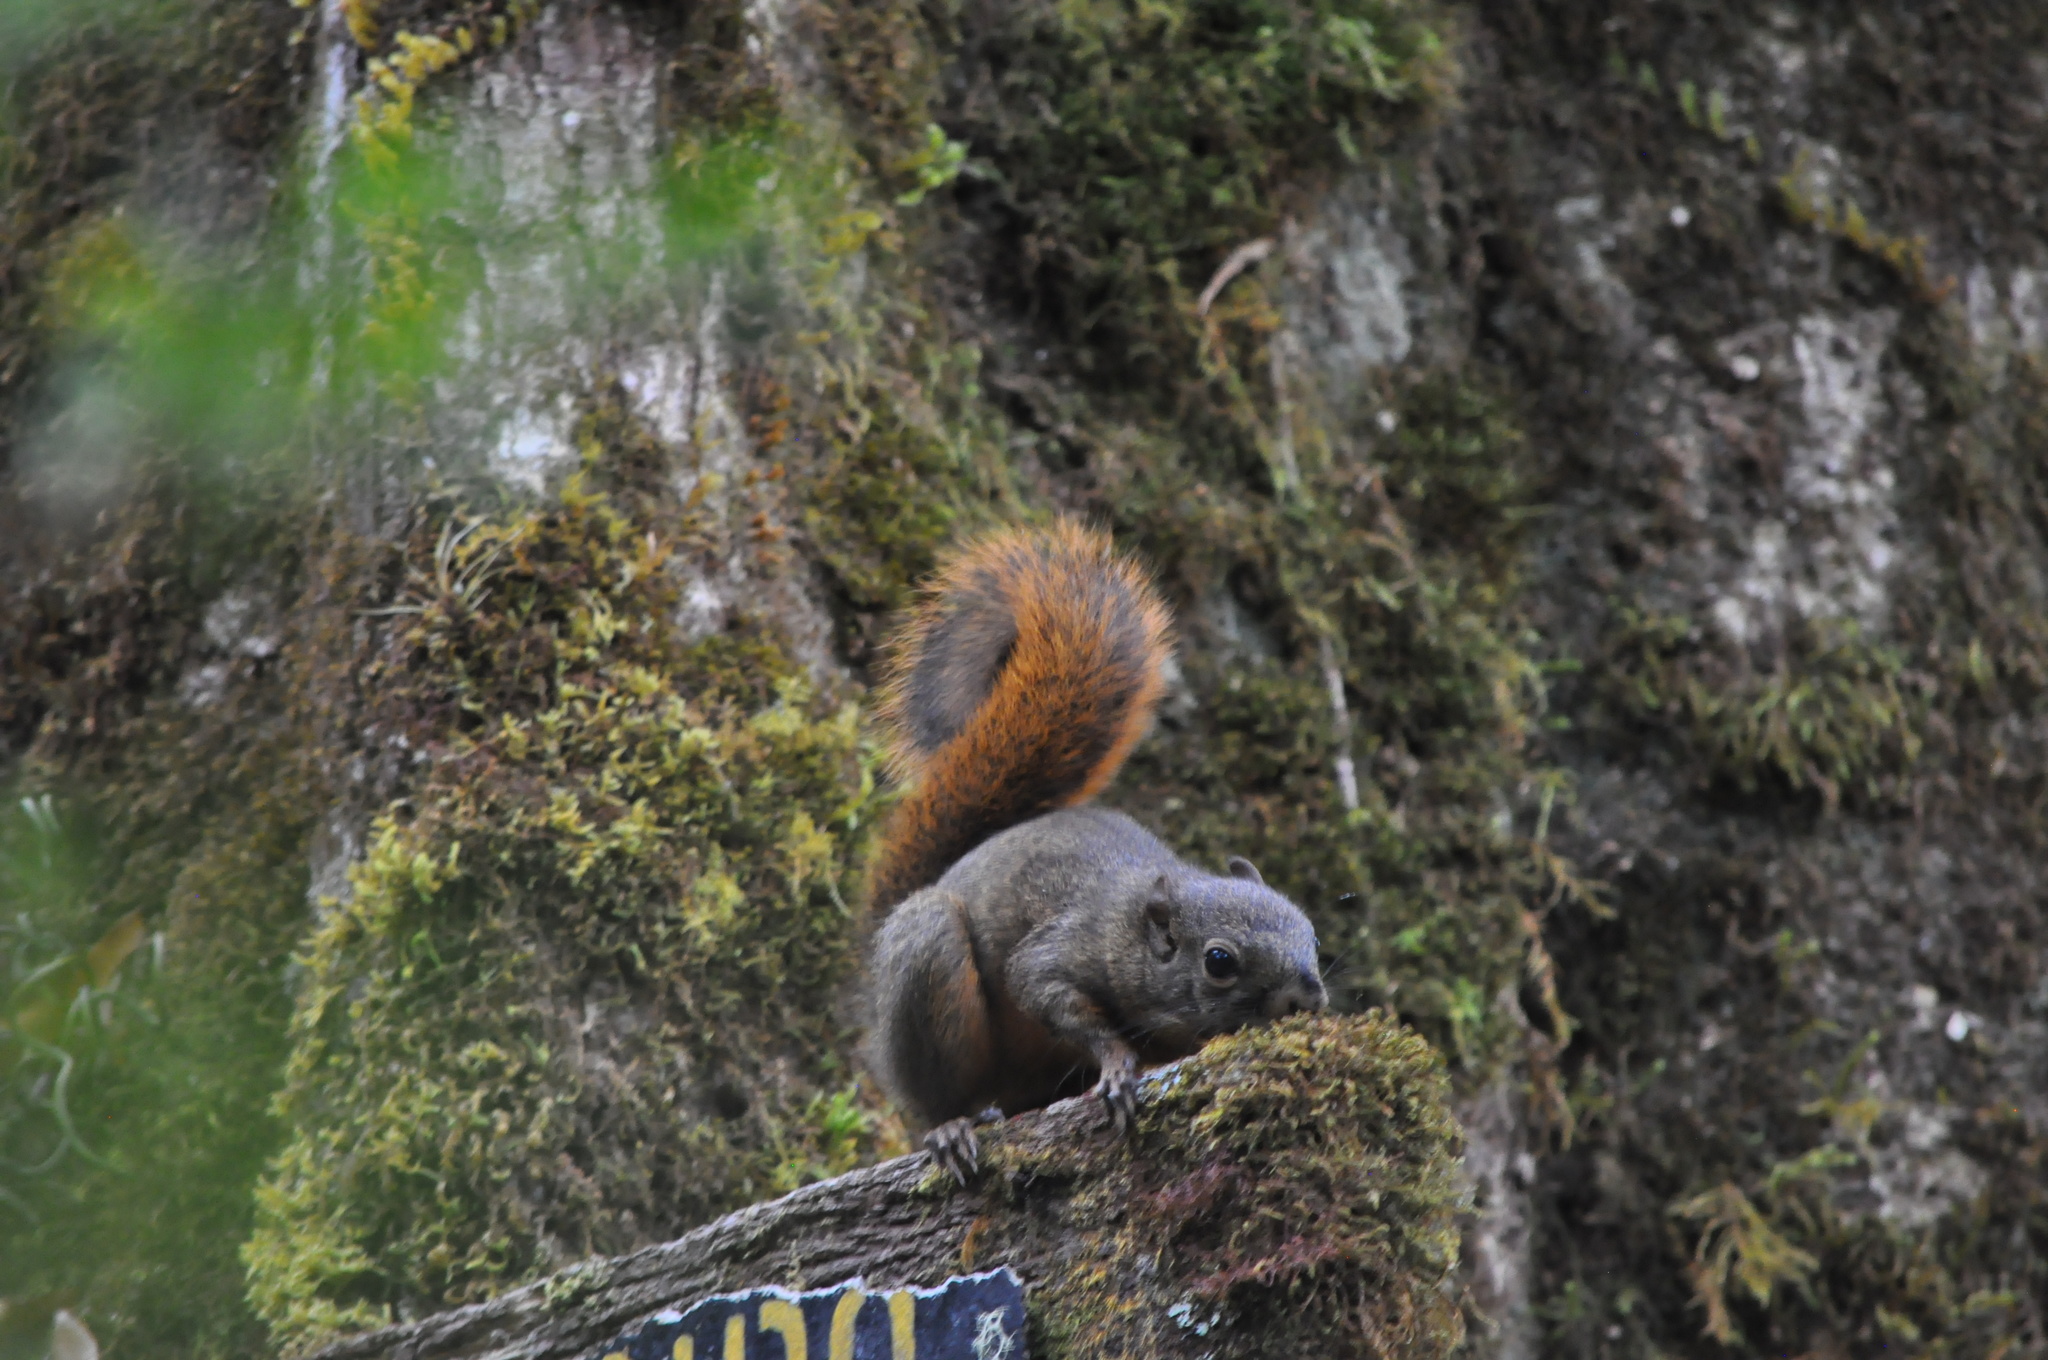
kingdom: Animalia
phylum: Chordata
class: Mammalia
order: Rodentia
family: Sciuridae
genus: Sciurus
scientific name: Sciurus granatensis
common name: Red-tailed squirrel
